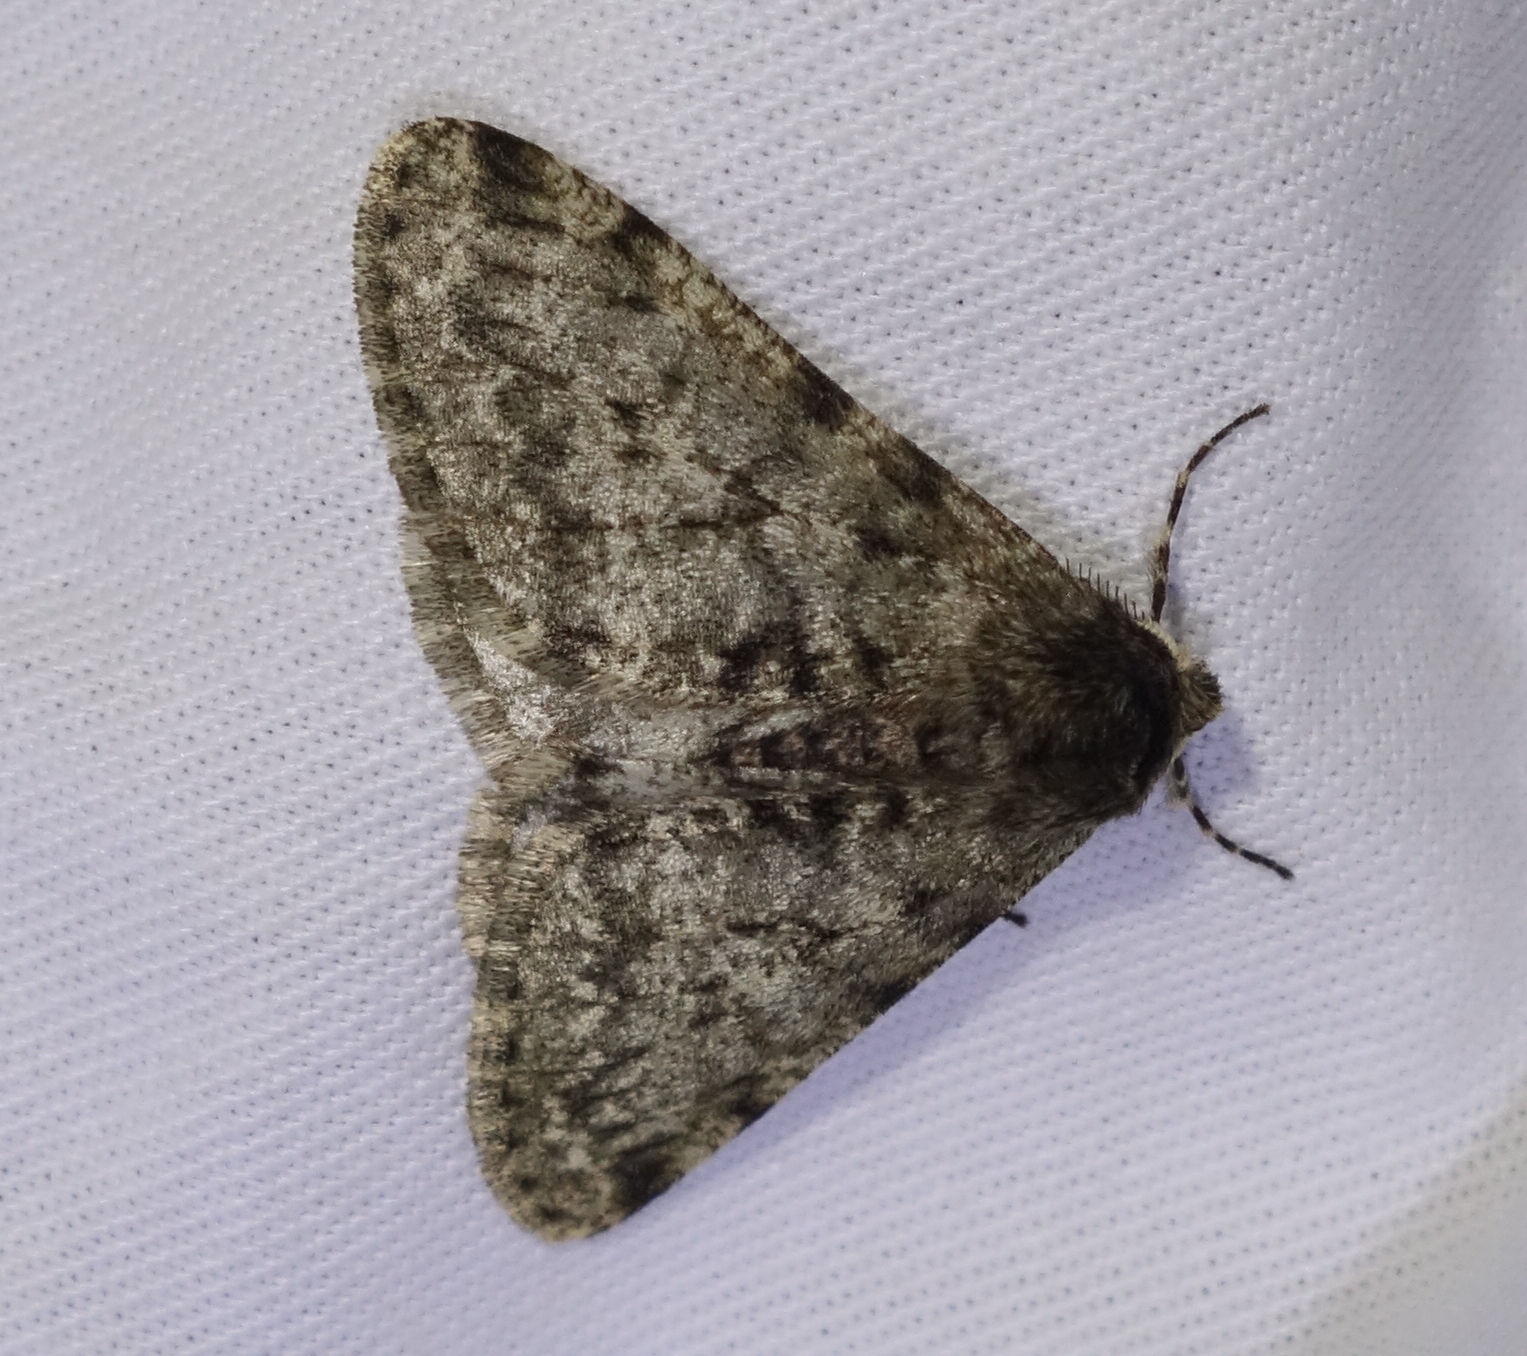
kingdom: Animalia
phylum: Arthropoda
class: Insecta
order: Lepidoptera
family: Geometridae
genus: Phigalia
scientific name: Phigalia pilosaria
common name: Pale brindled beauty
